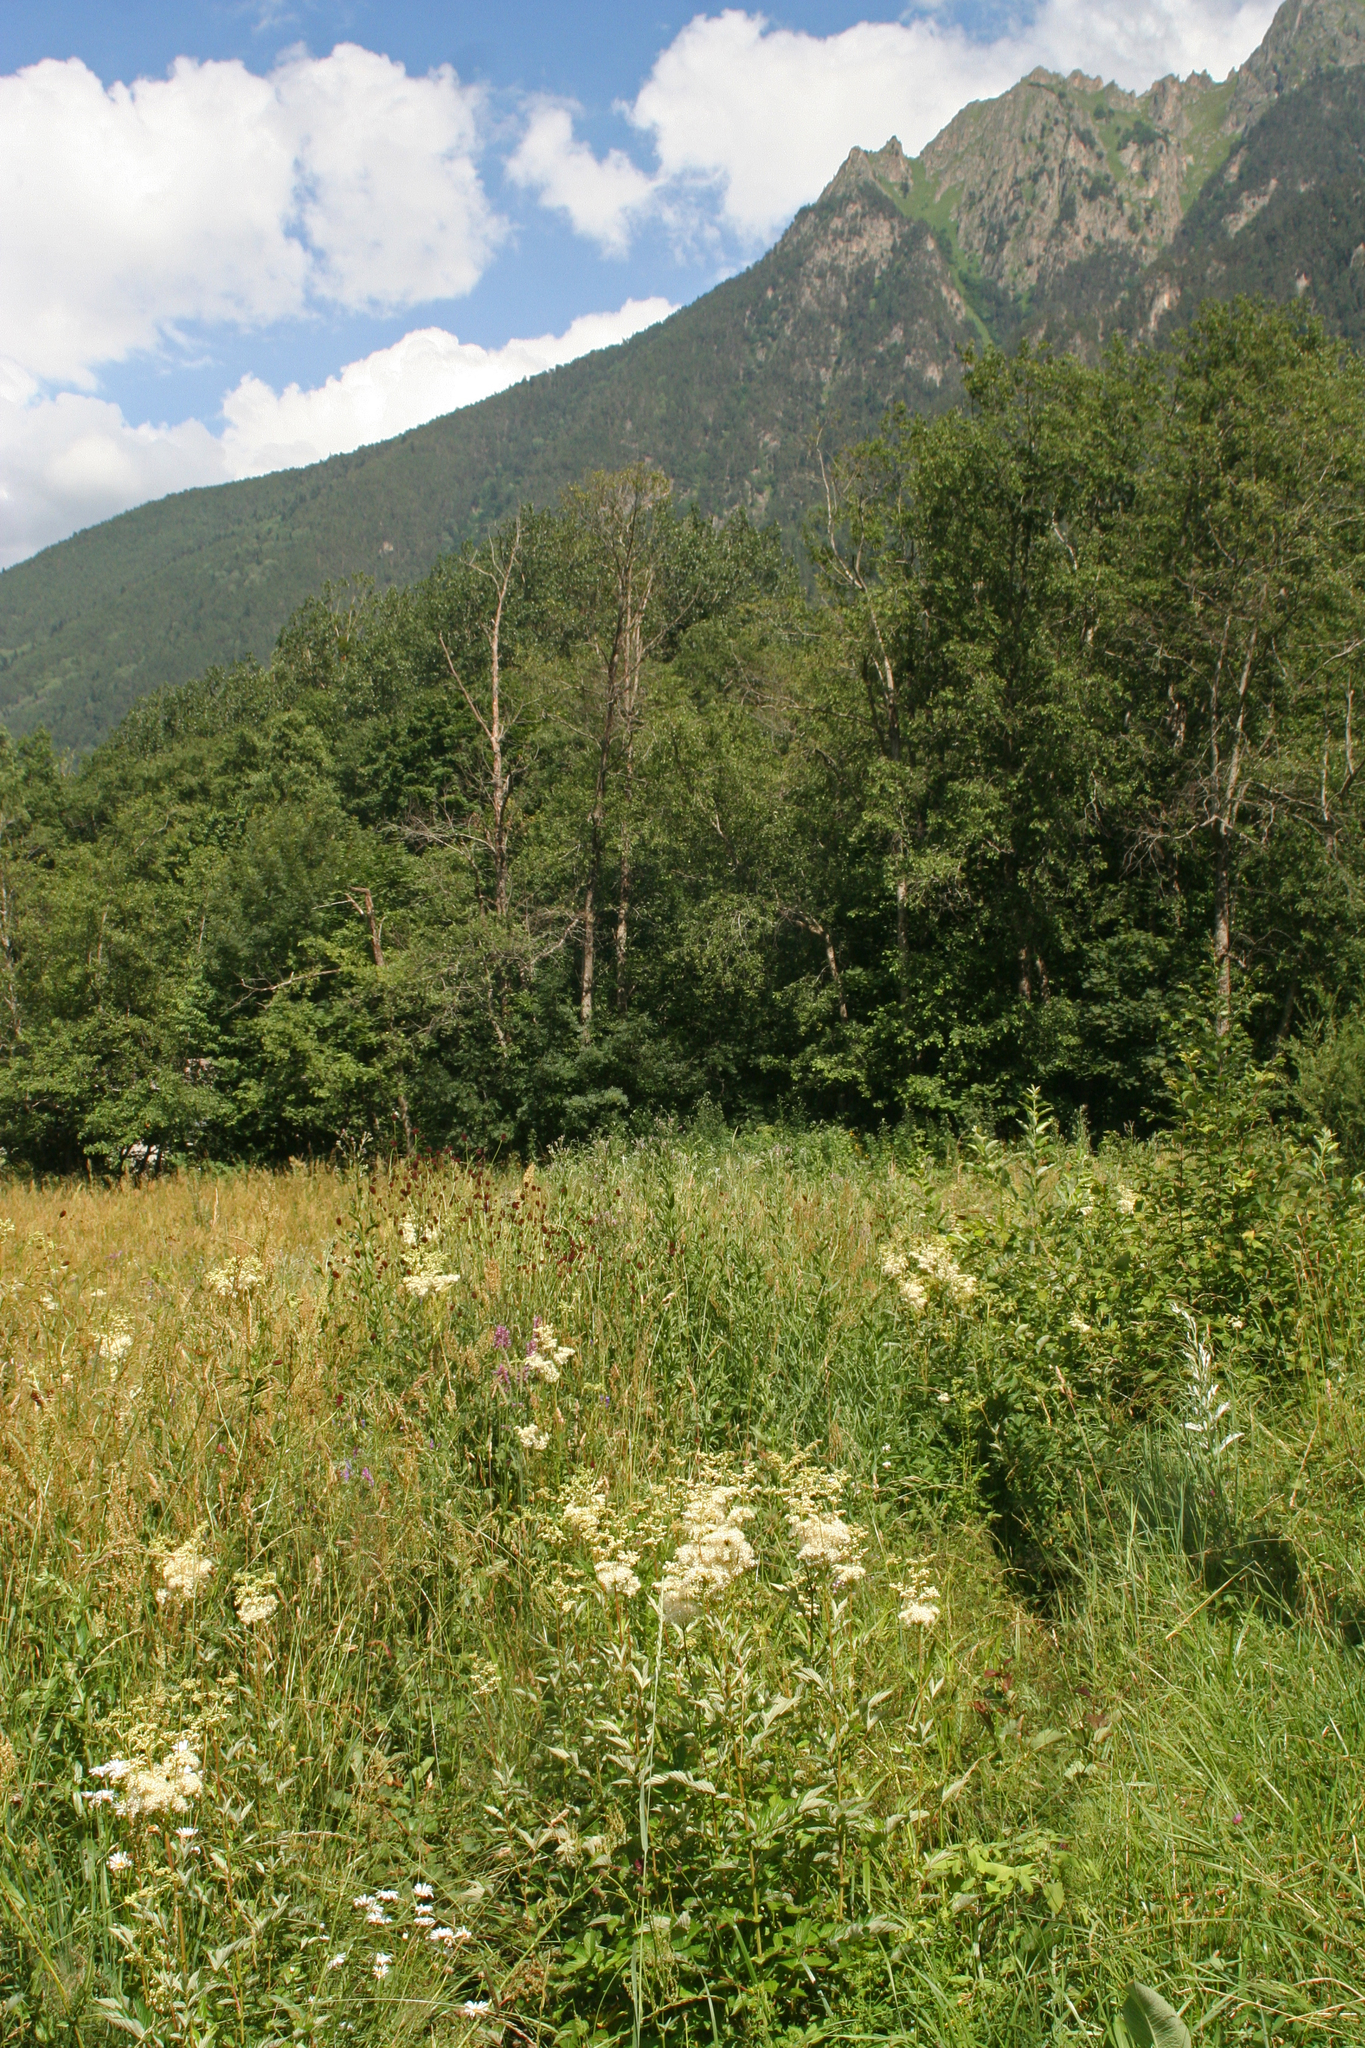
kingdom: Plantae
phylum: Tracheophyta
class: Magnoliopsida
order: Rosales
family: Rosaceae
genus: Filipendula
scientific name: Filipendula ulmaria
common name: Meadowsweet
